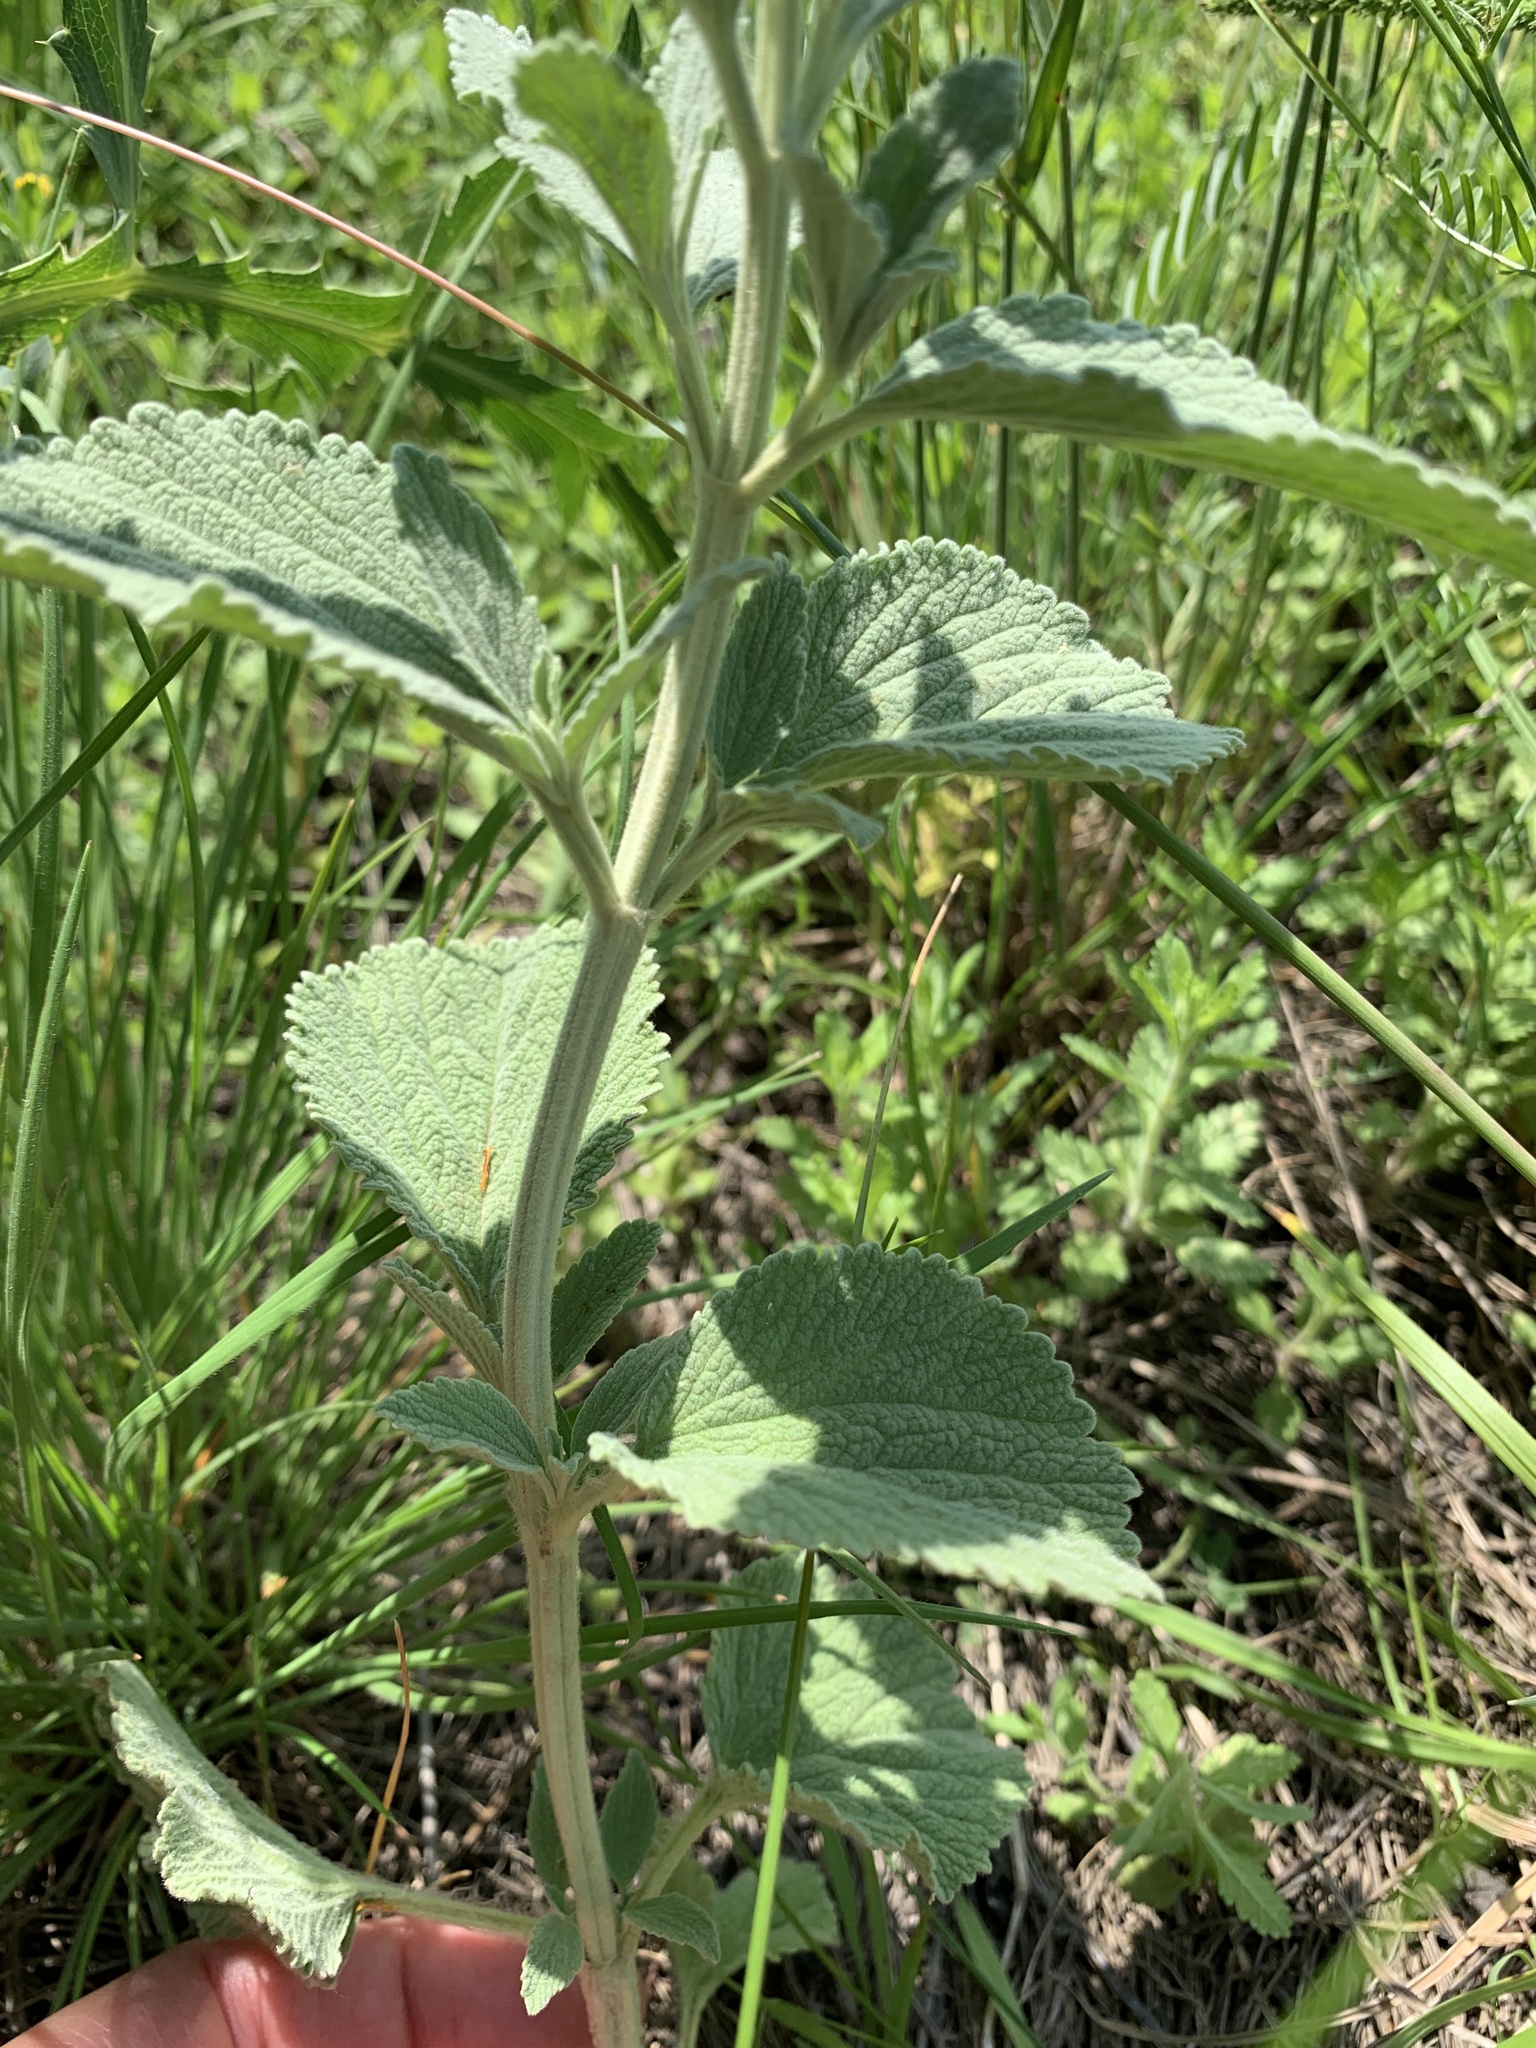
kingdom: Plantae
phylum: Tracheophyta
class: Magnoliopsida
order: Lamiales
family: Lamiaceae
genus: Marrubium
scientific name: Marrubium peregrinum
